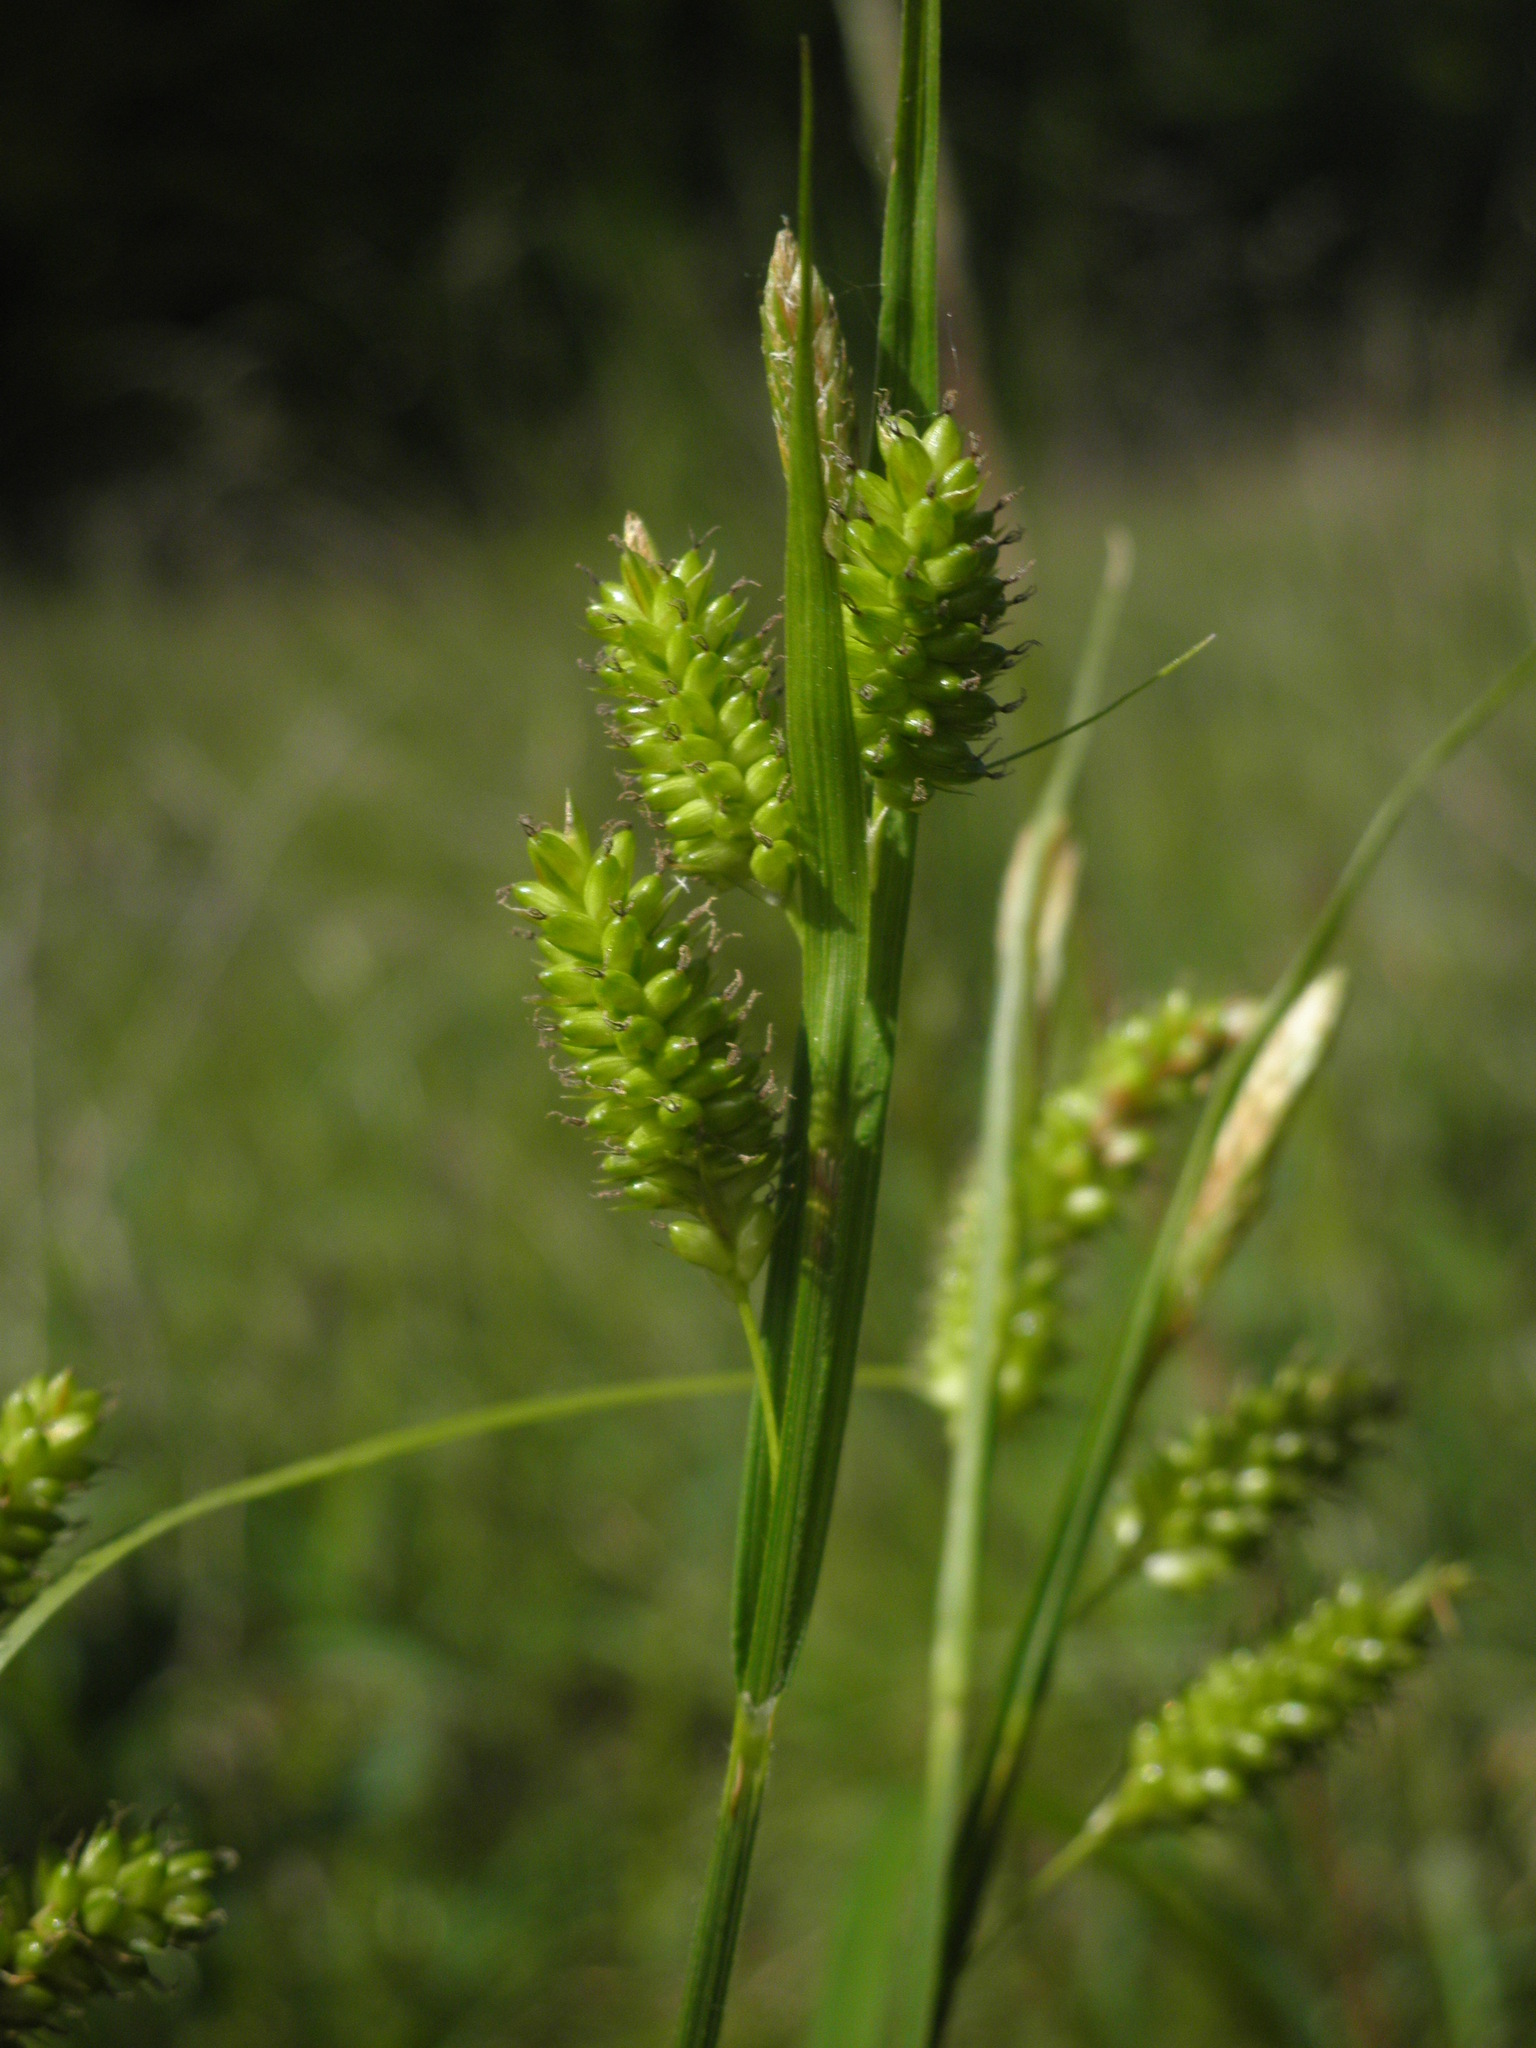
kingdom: Plantae
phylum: Tracheophyta
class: Liliopsida
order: Poales
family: Cyperaceae
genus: Carex
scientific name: Carex pallescens
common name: Pale sedge
